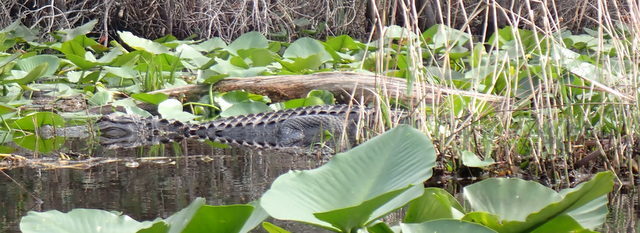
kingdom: Animalia
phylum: Chordata
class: Crocodylia
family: Alligatoridae
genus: Alligator
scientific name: Alligator mississippiensis
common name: American alligator
